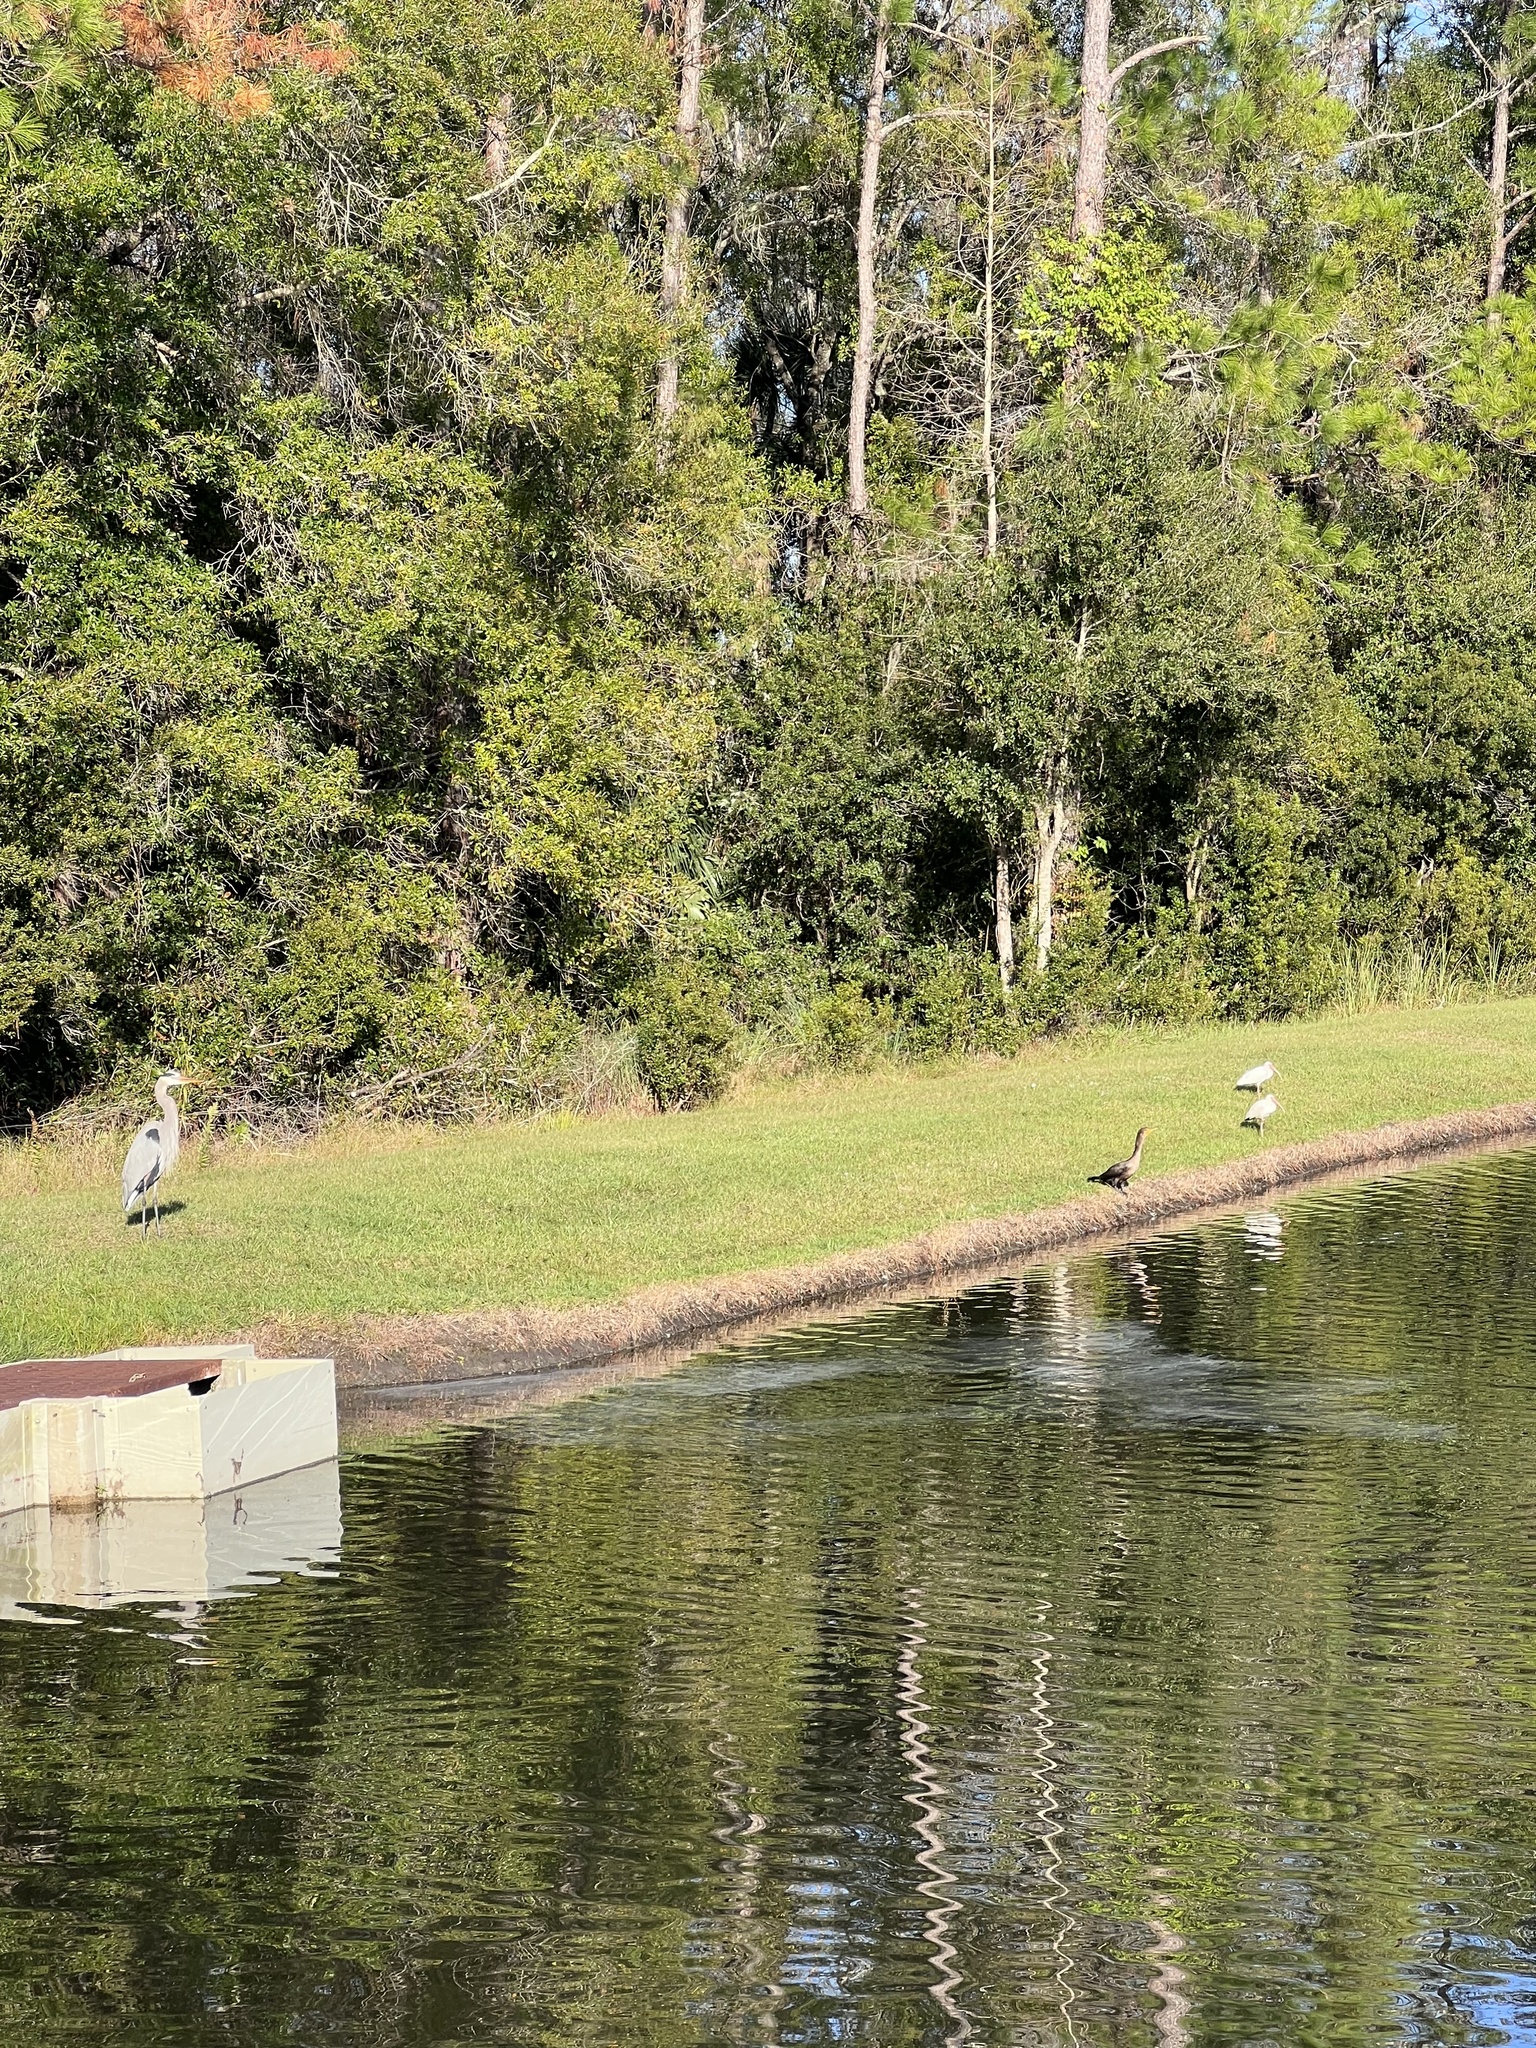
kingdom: Animalia
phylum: Chordata
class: Aves
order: Suliformes
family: Phalacrocoracidae
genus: Phalacrocorax
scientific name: Phalacrocorax auritus
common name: Double-crested cormorant
